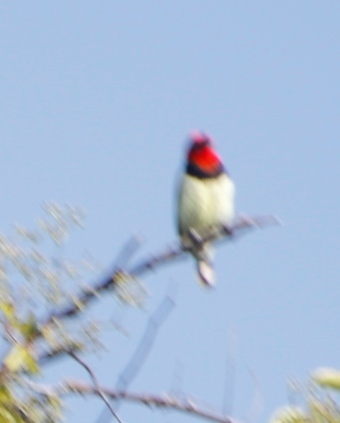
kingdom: Animalia
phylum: Chordata
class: Aves
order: Piciformes
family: Lybiidae
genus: Lybius
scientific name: Lybius torquatus
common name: Black-collared barbet
